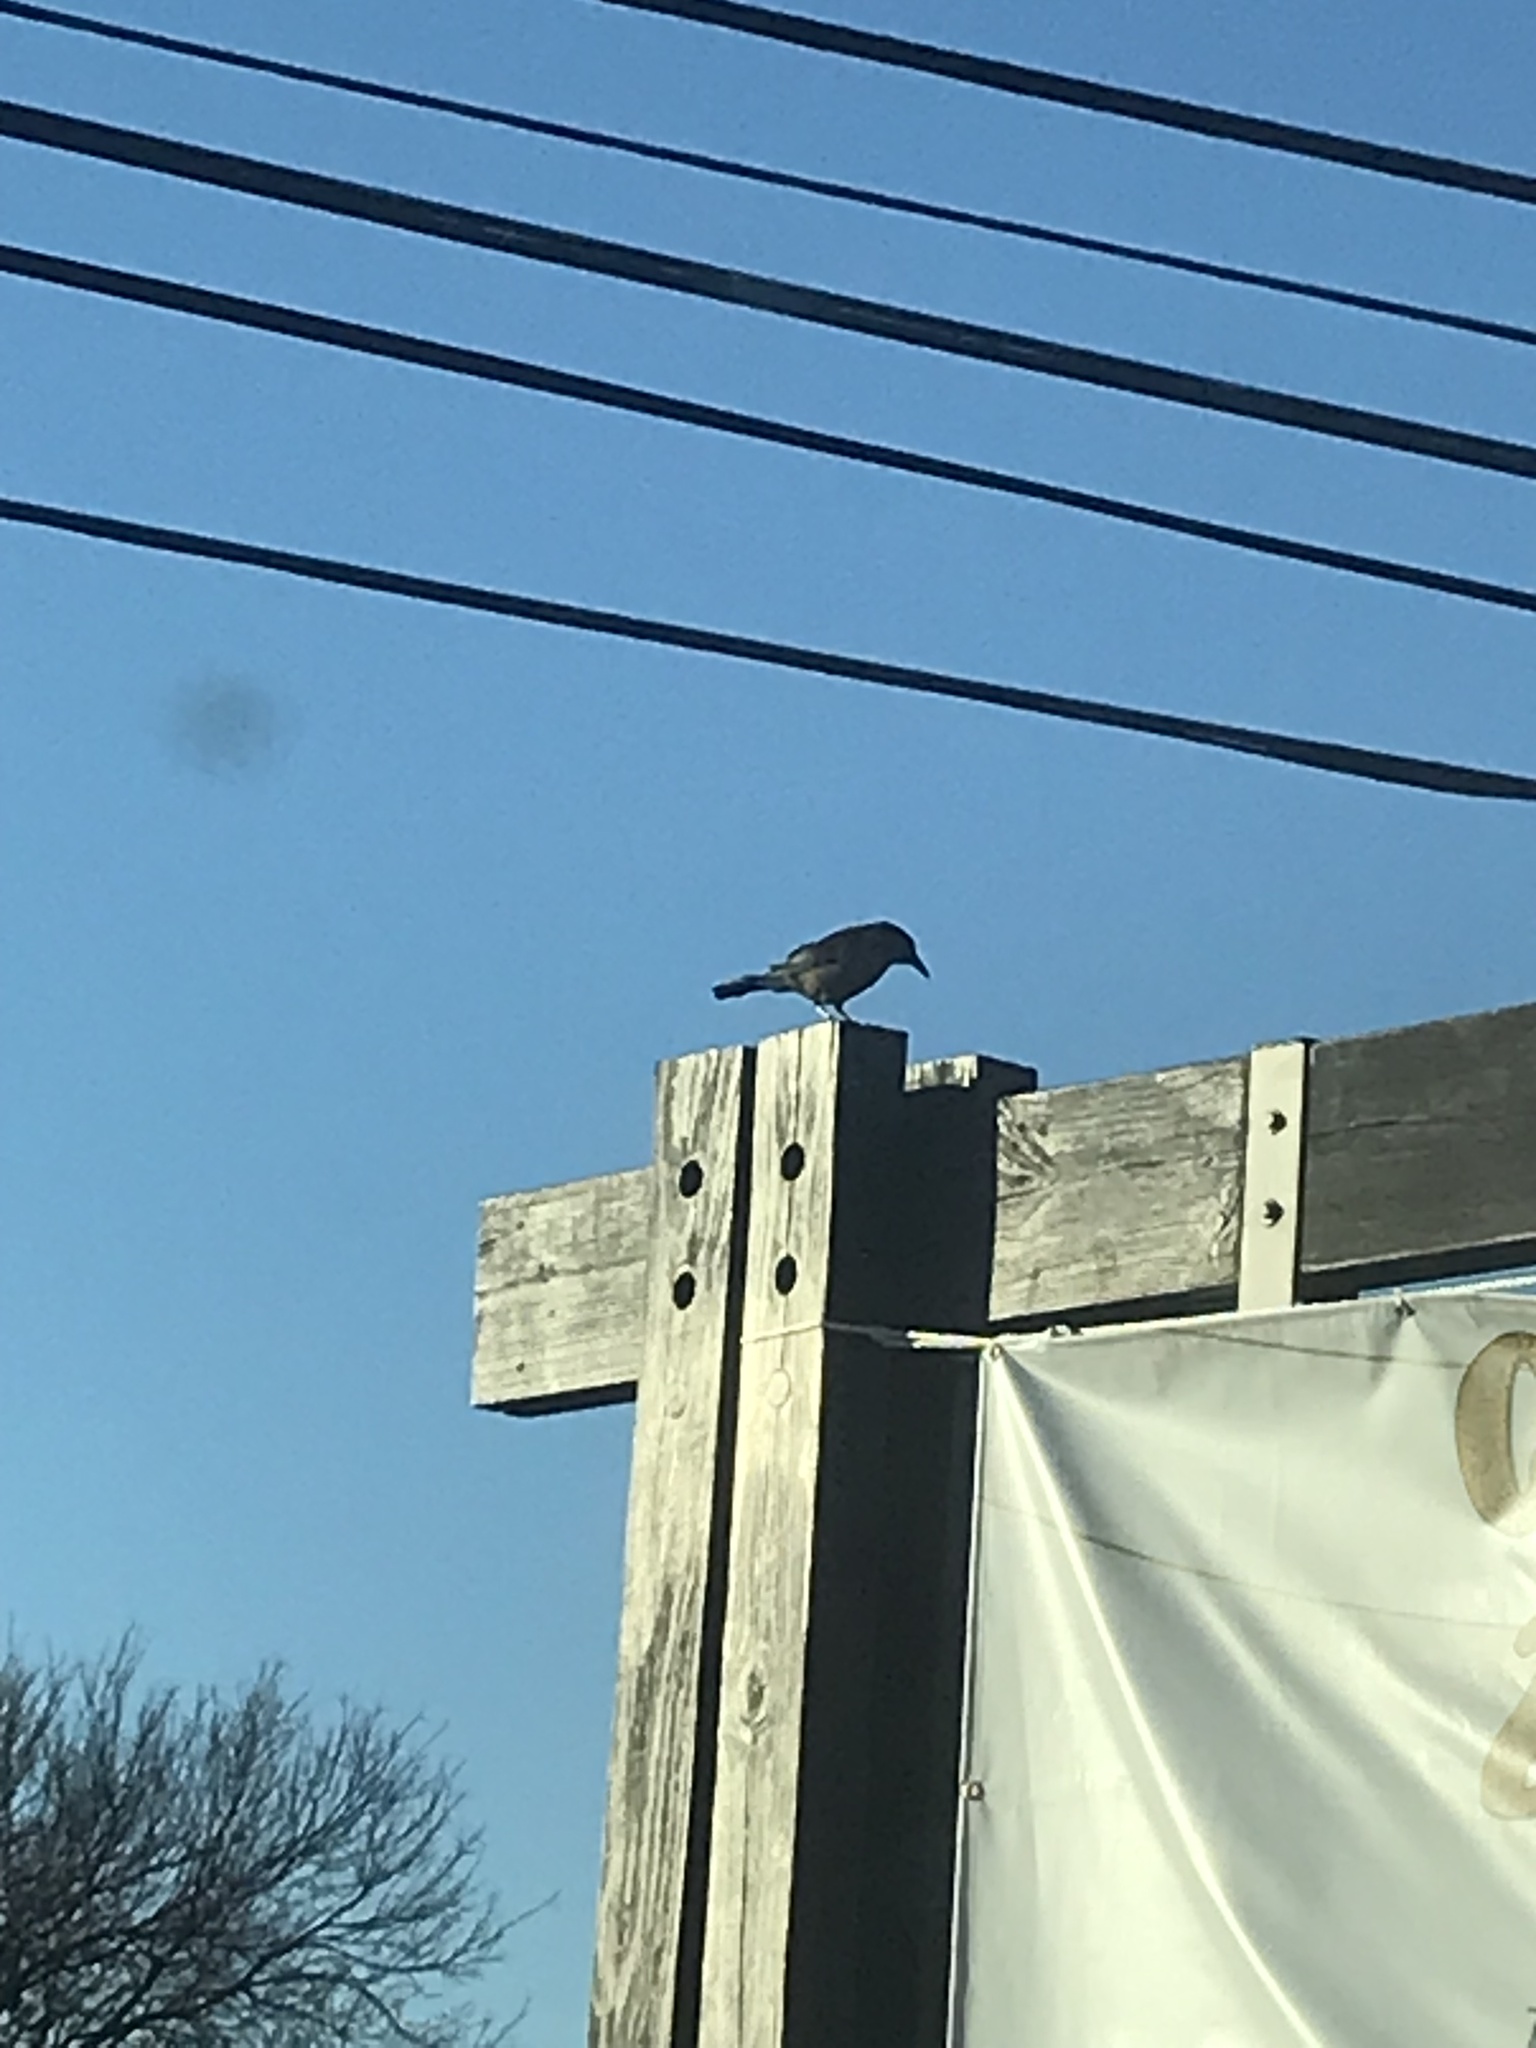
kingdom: Animalia
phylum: Chordata
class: Aves
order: Passeriformes
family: Icteridae
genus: Quiscalus
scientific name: Quiscalus mexicanus
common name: Great-tailed grackle
